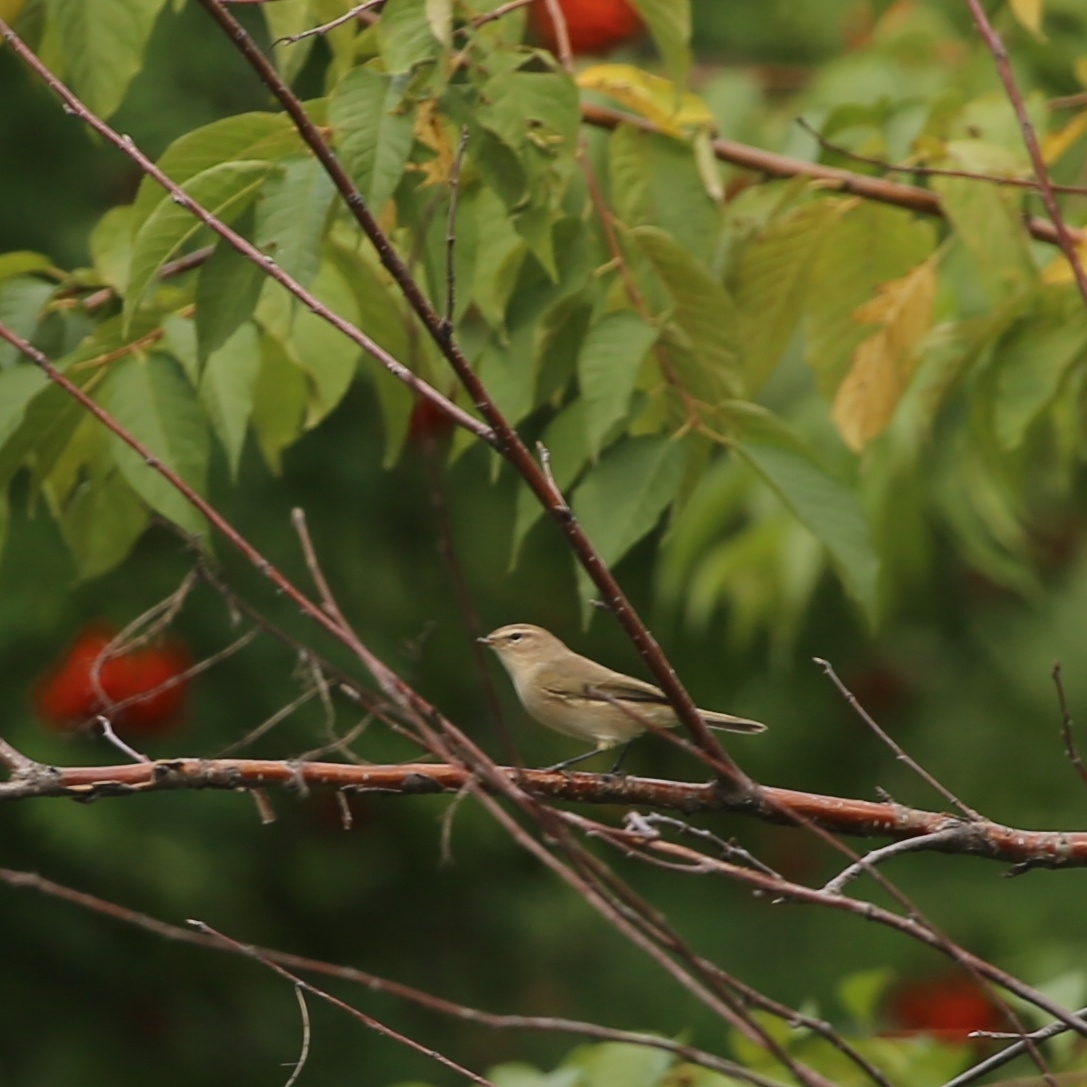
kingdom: Animalia
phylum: Chordata
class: Aves
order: Passeriformes
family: Phylloscopidae
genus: Phylloscopus
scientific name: Phylloscopus collybita
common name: Common chiffchaff
